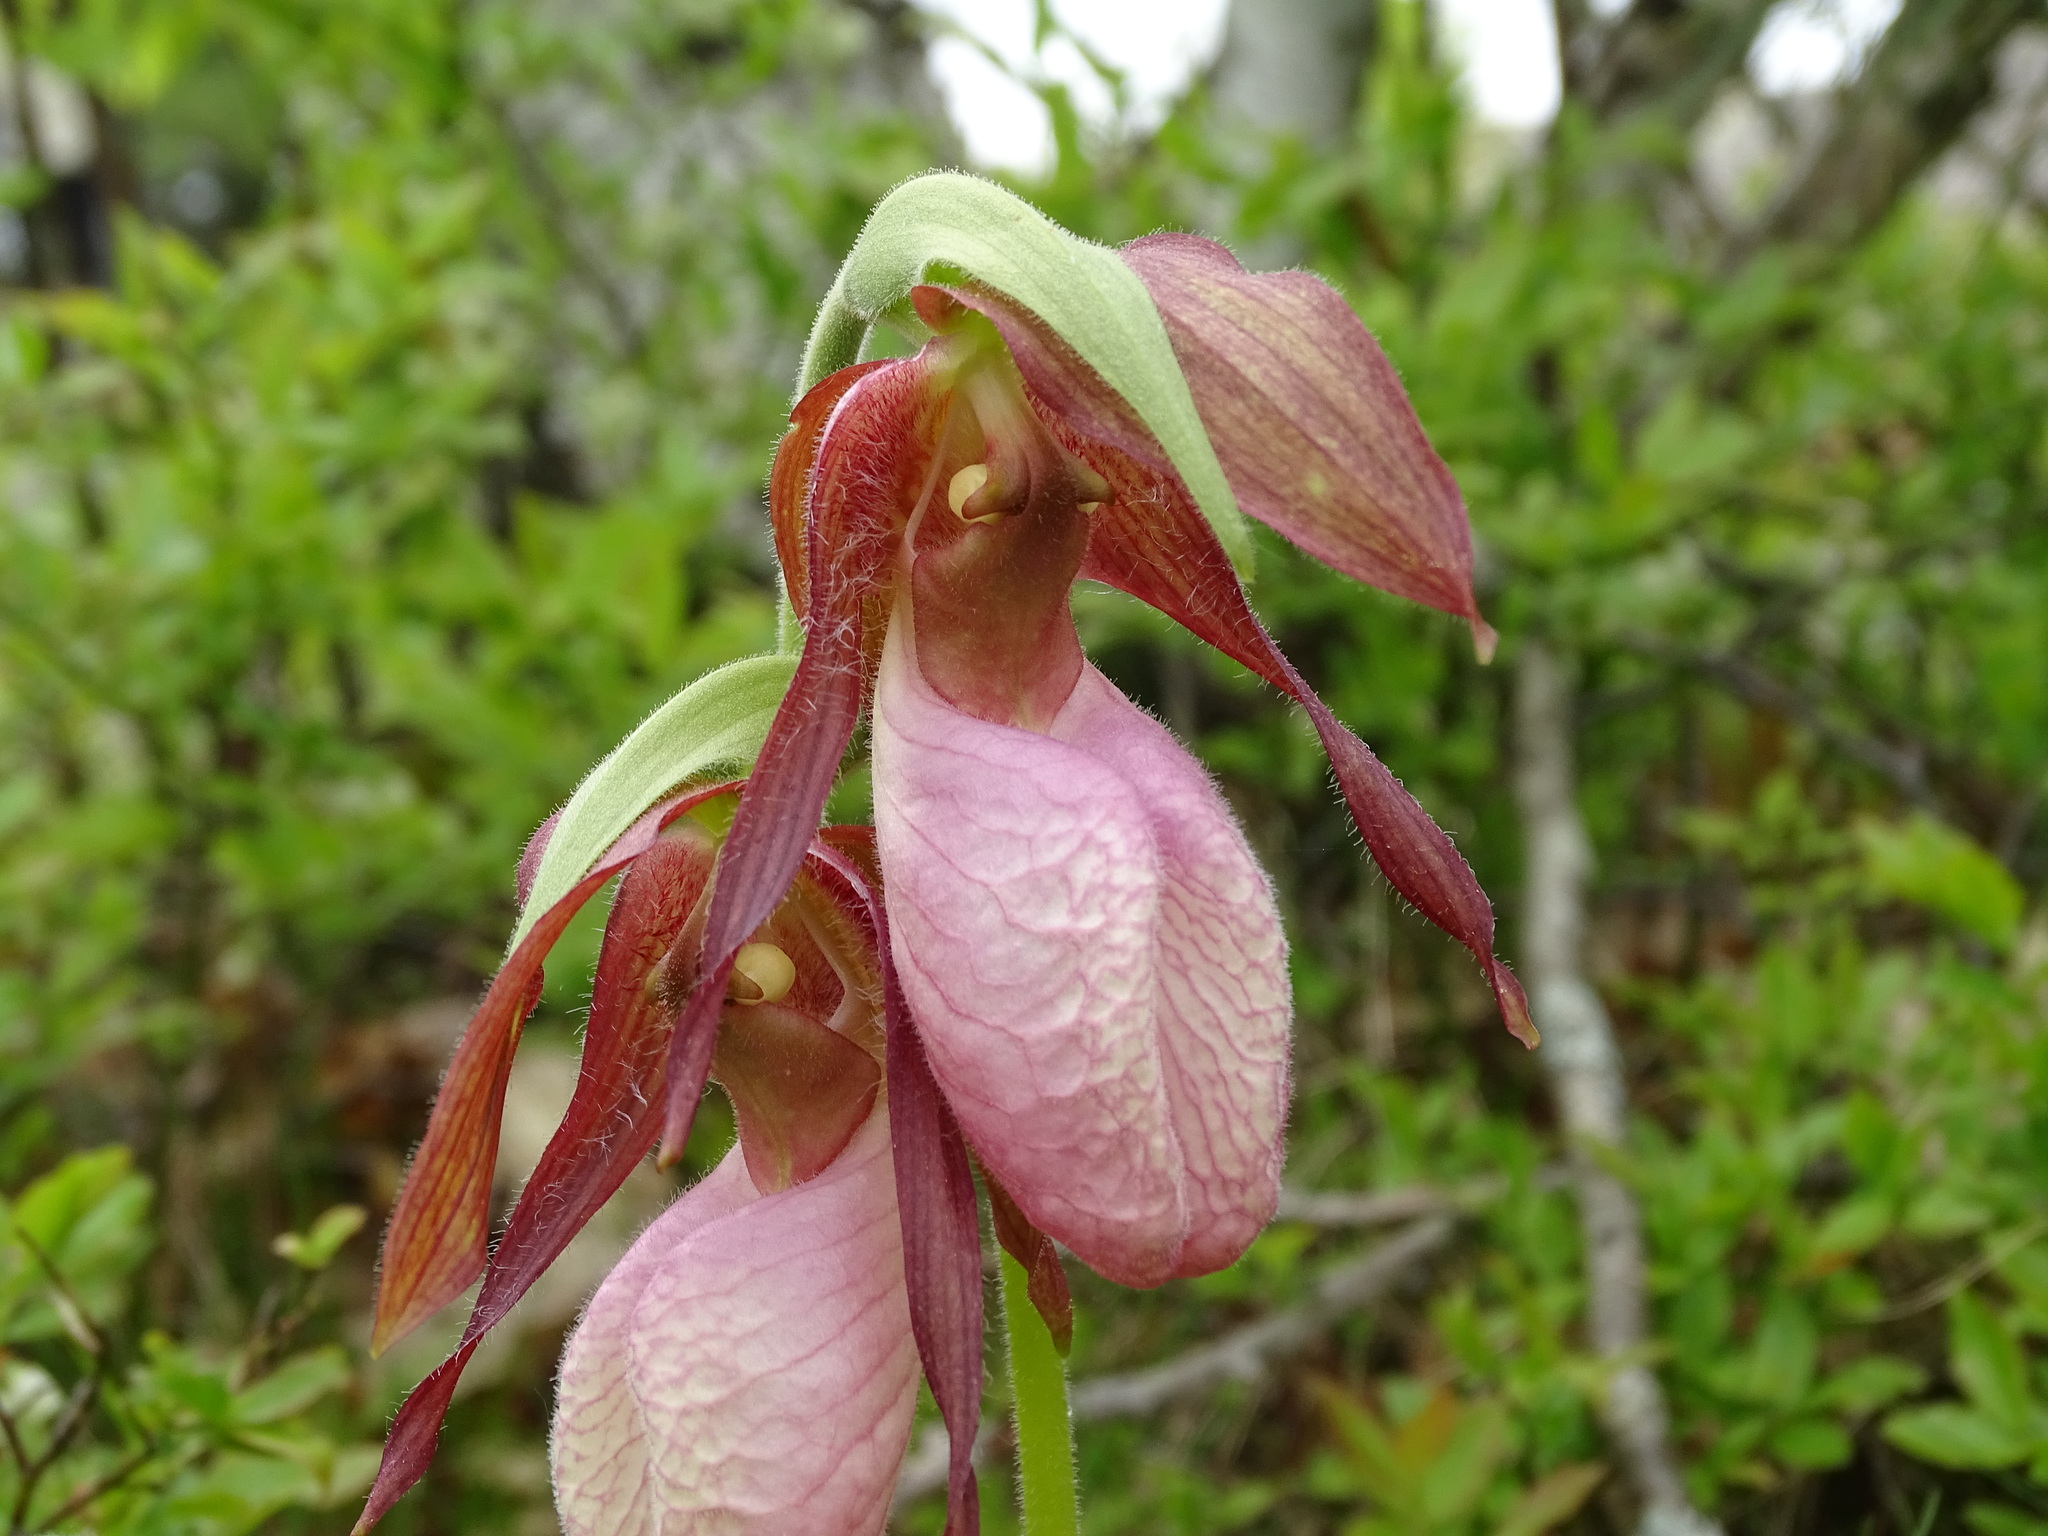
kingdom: Plantae
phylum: Tracheophyta
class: Liliopsida
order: Asparagales
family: Orchidaceae
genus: Cypripedium
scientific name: Cypripedium acaule
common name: Pink lady's-slipper
